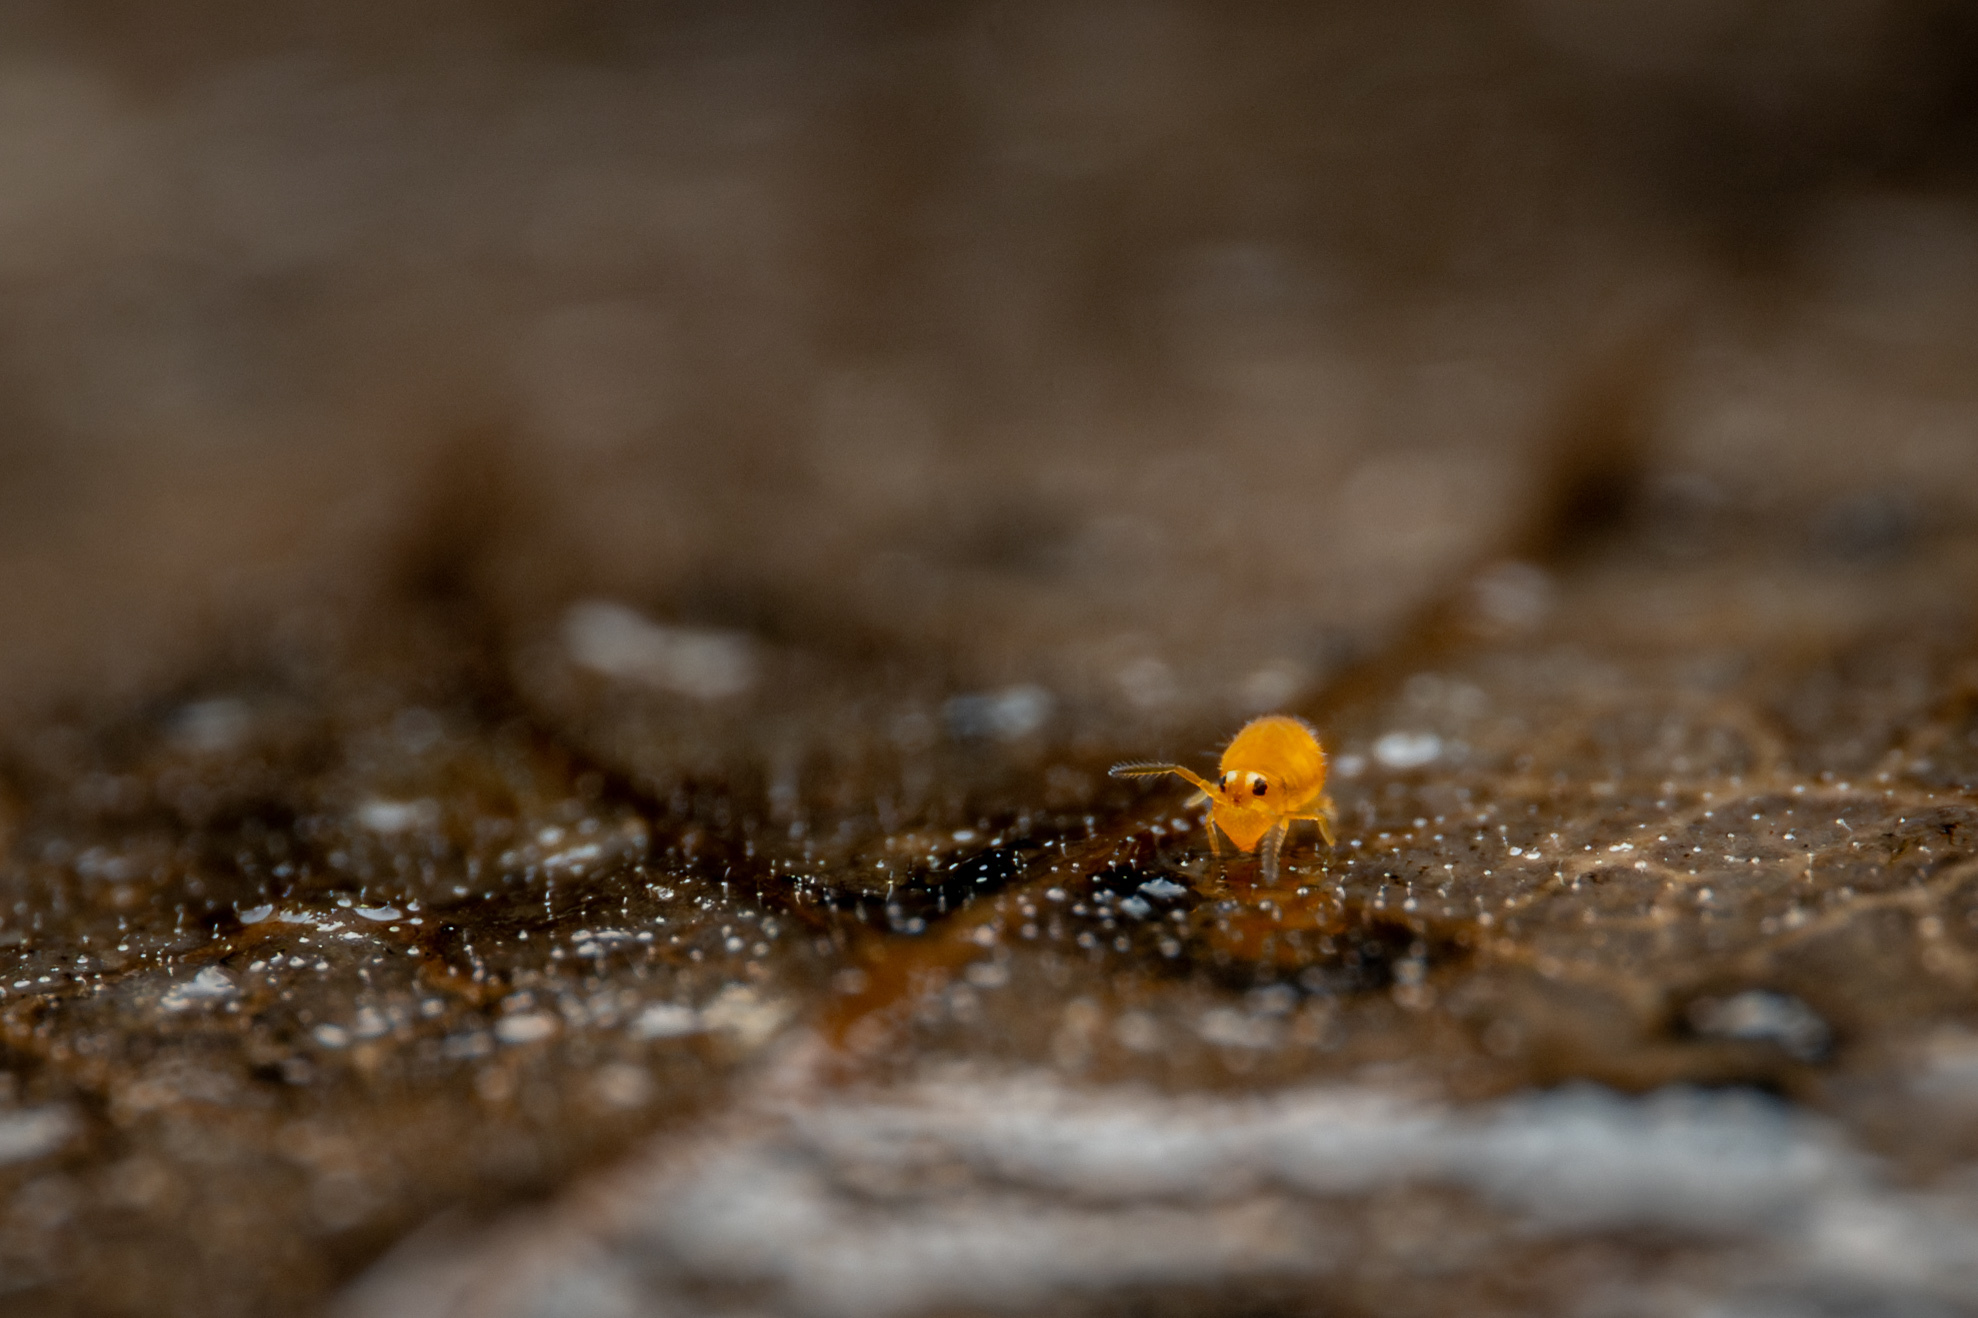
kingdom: Animalia
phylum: Arthropoda
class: Collembola
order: Symphypleona
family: Katiannidae
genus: Sminthurinus
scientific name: Sminthurinus henshawi
